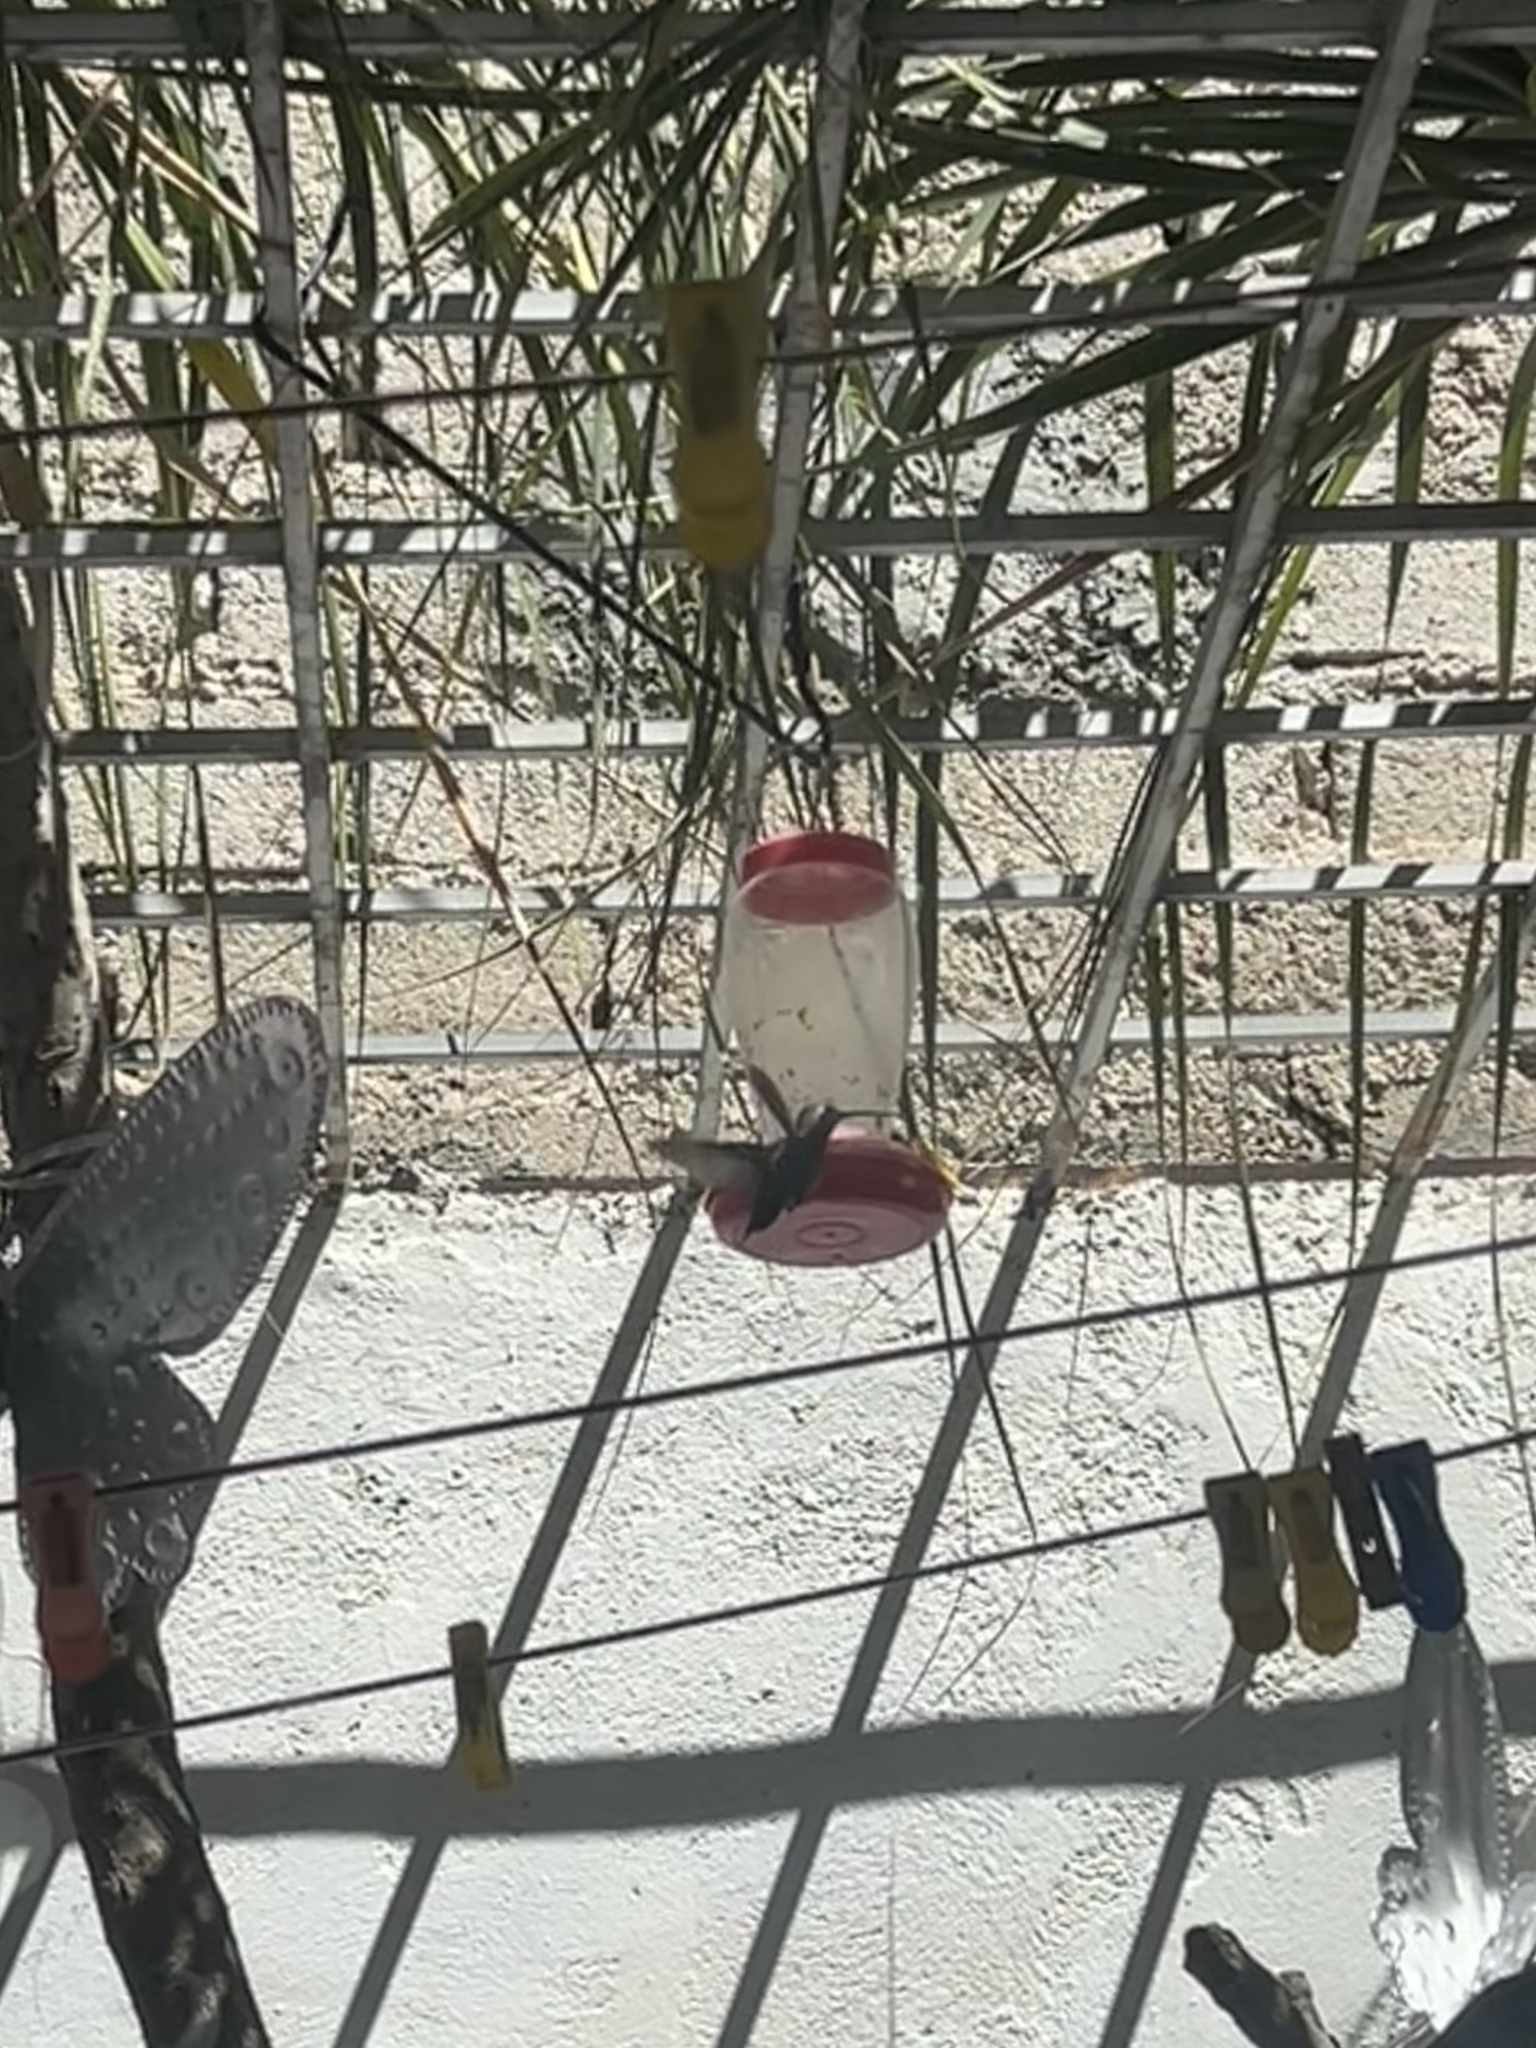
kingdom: Animalia
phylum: Chordata
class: Aves
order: Apodiformes
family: Trochilidae
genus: Cynanthus
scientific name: Cynanthus latirostris
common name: Broad-billed hummingbird
